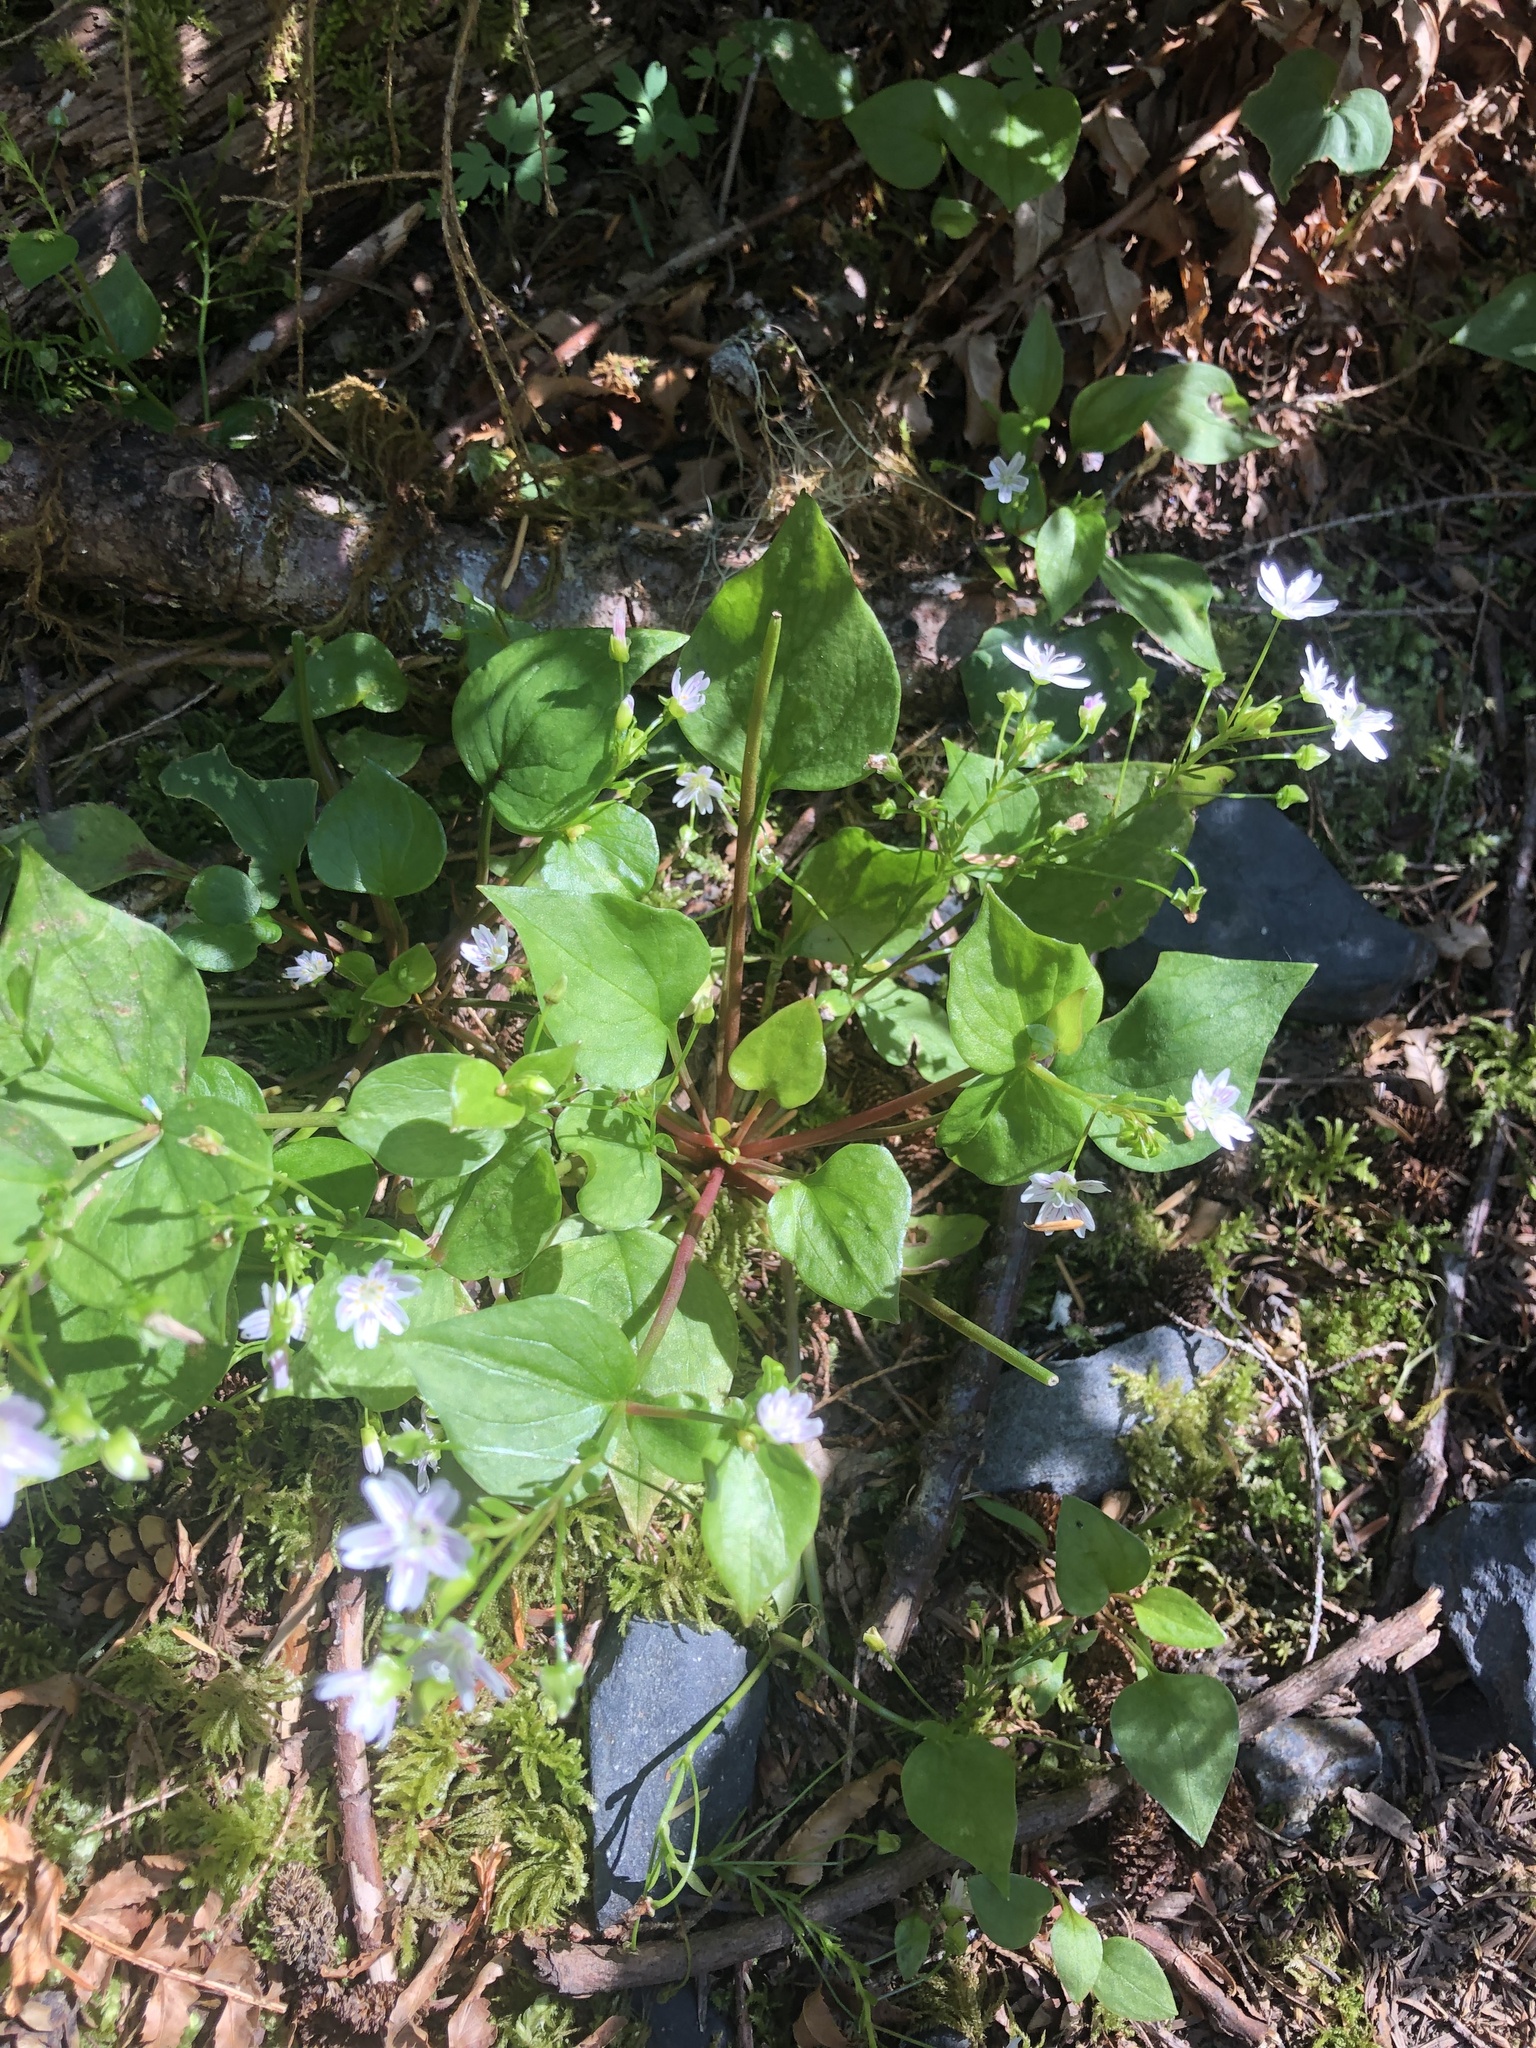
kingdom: Plantae
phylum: Tracheophyta
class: Magnoliopsida
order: Caryophyllales
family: Montiaceae
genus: Claytonia
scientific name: Claytonia sibirica
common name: Pink purslane
